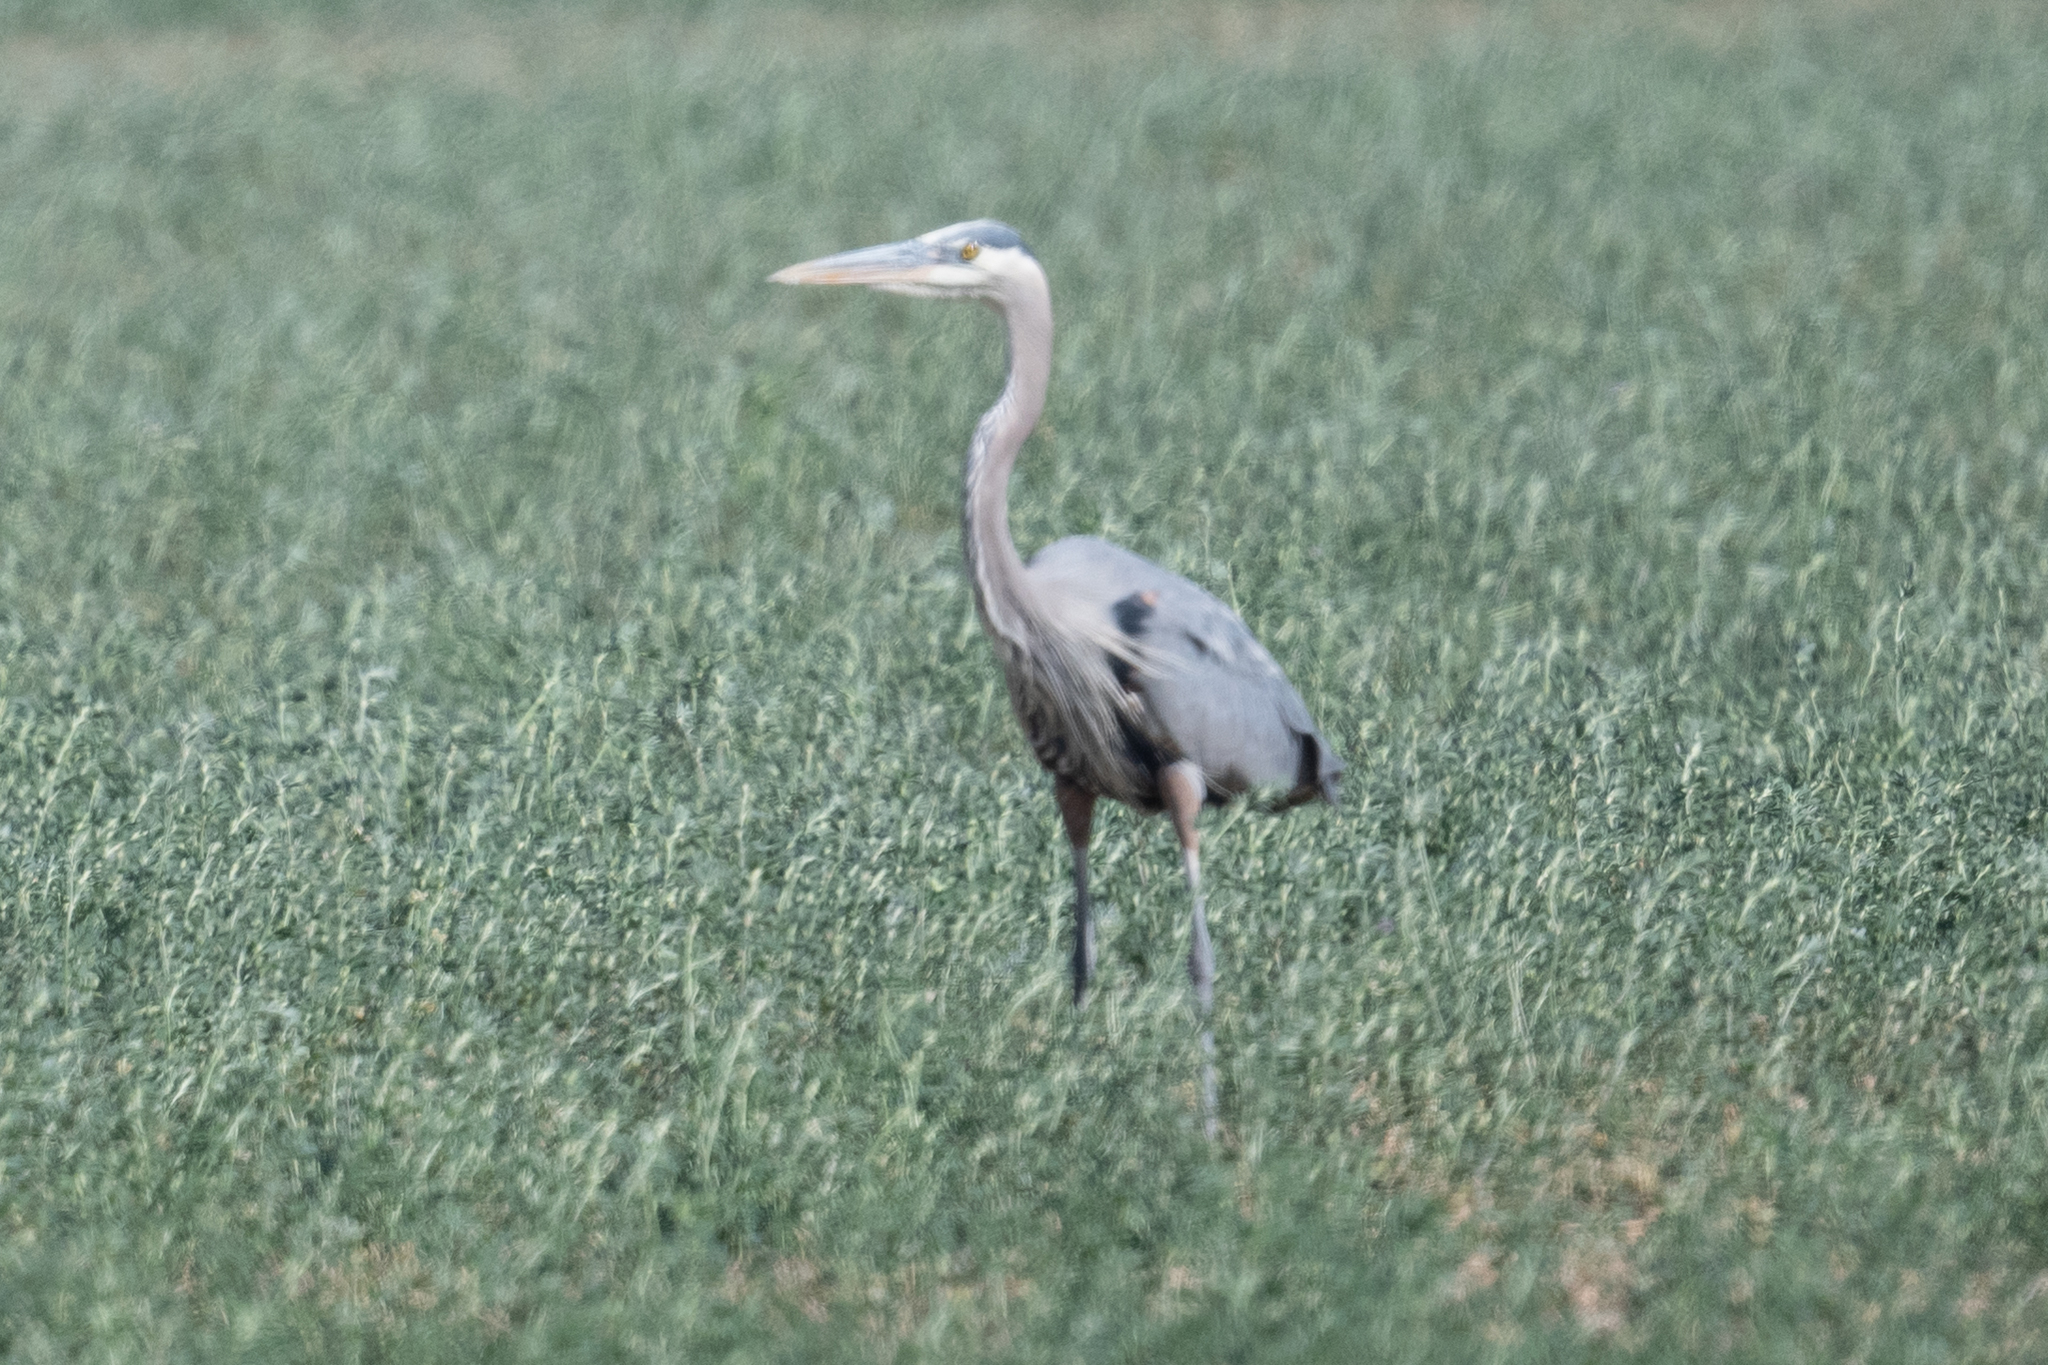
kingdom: Animalia
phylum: Chordata
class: Aves
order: Pelecaniformes
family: Ardeidae
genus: Ardea
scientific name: Ardea herodias
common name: Great blue heron
